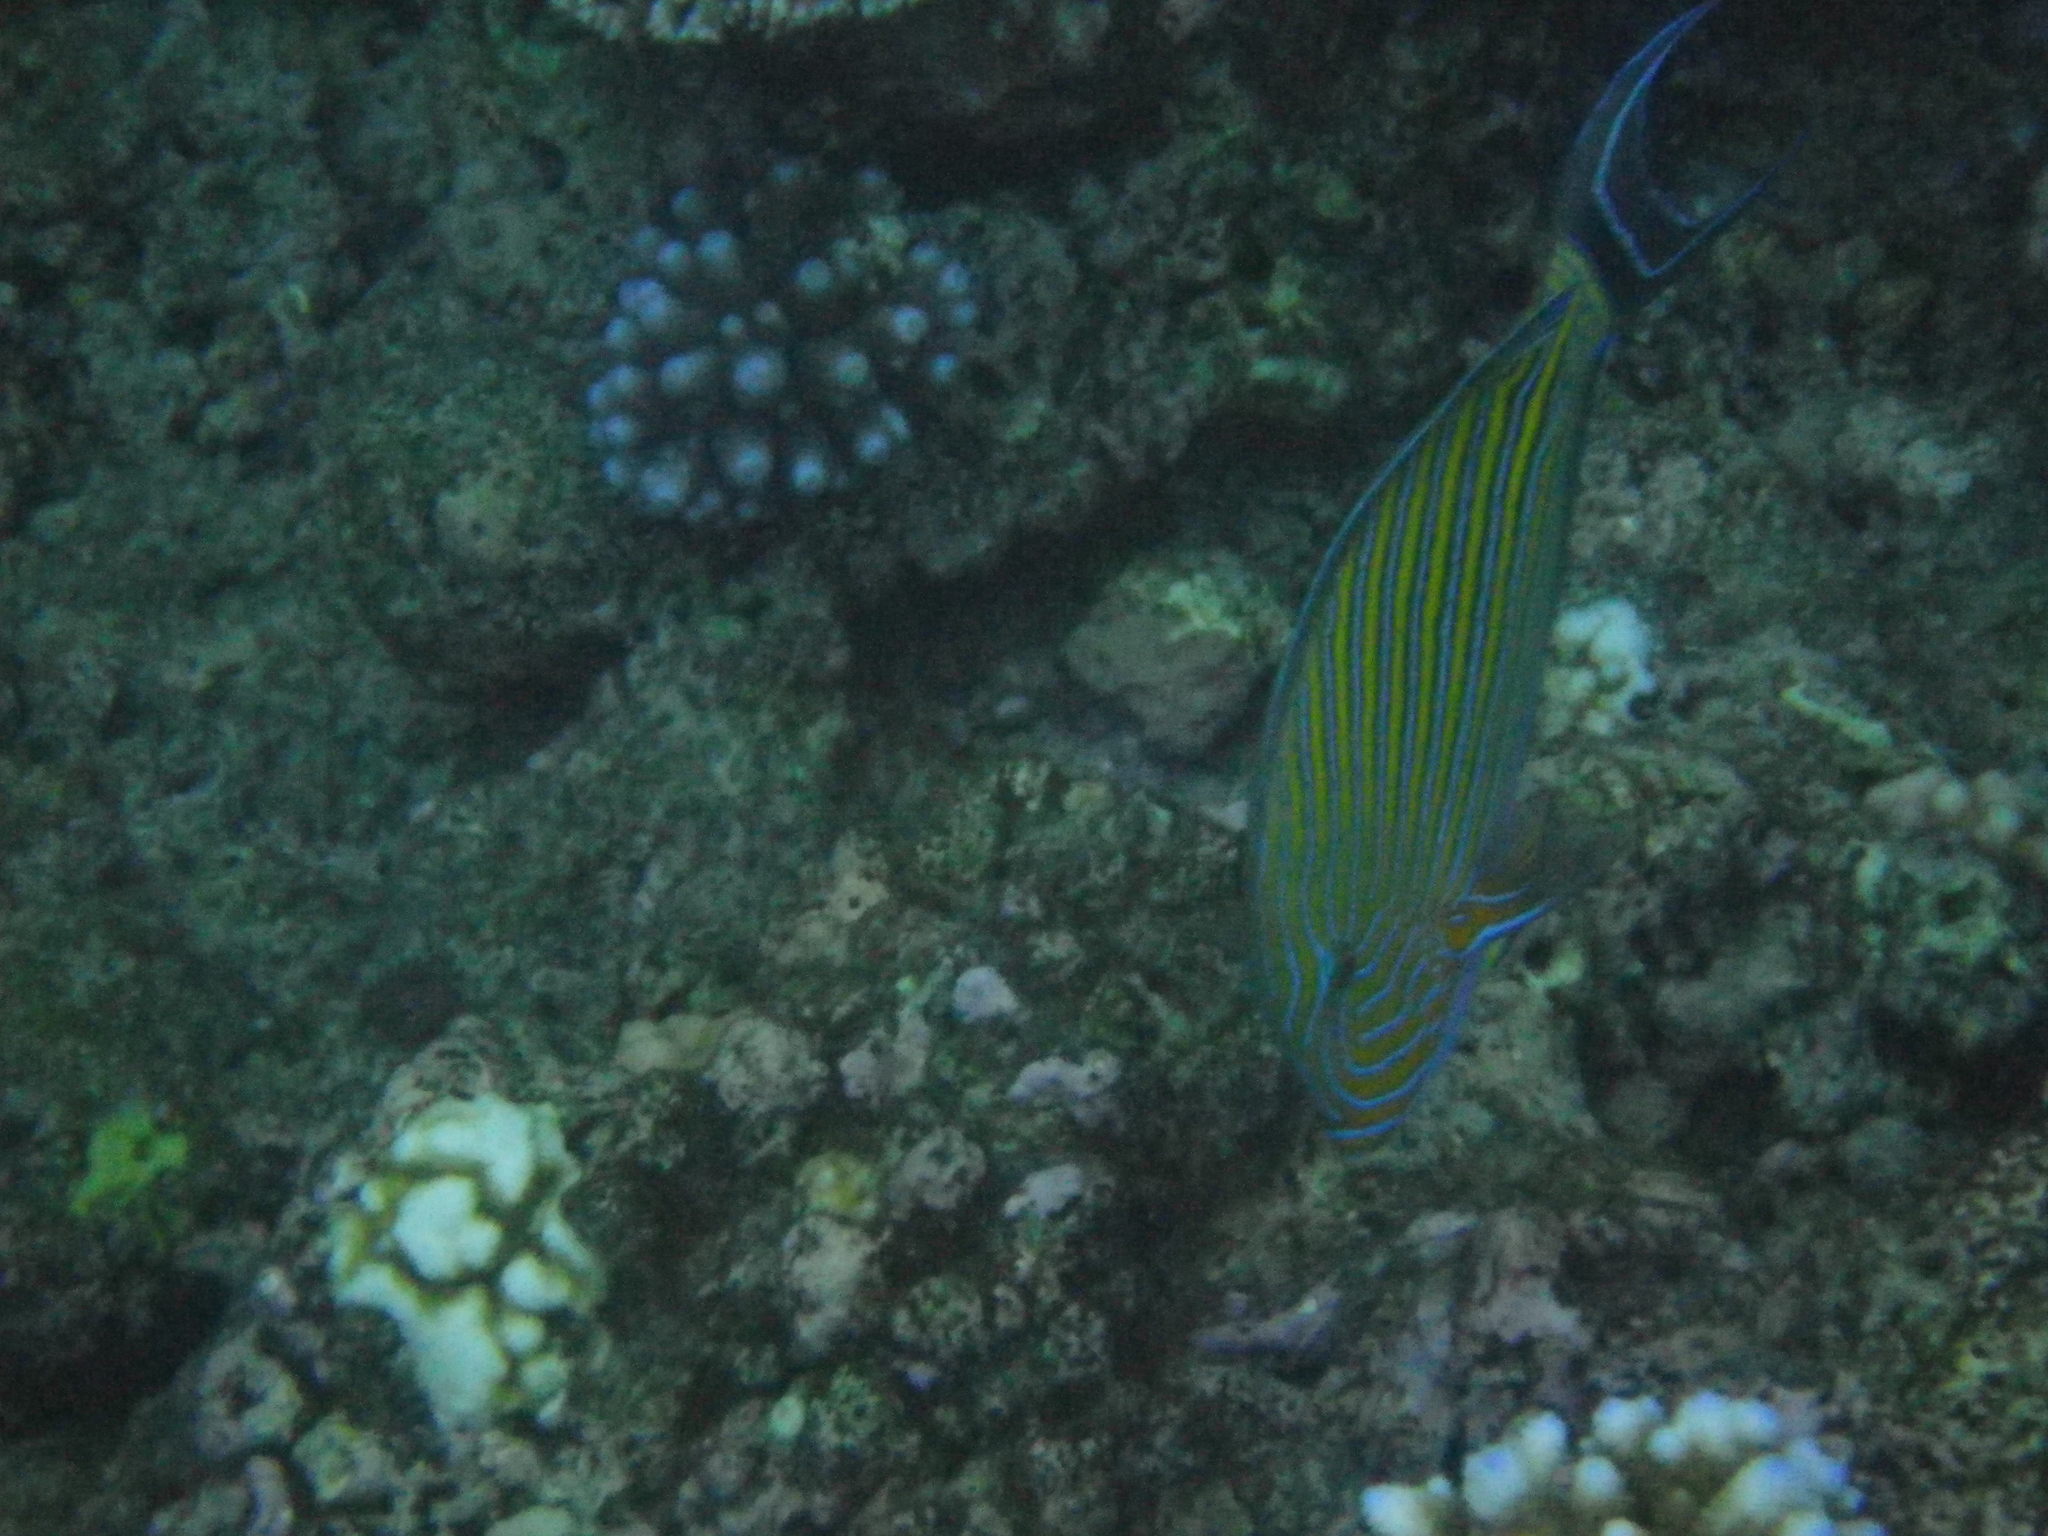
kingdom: Animalia
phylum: Chordata
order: Perciformes
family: Acanthuridae
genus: Acanthurus
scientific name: Acanthurus lineatus
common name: Striped surgeonfish
